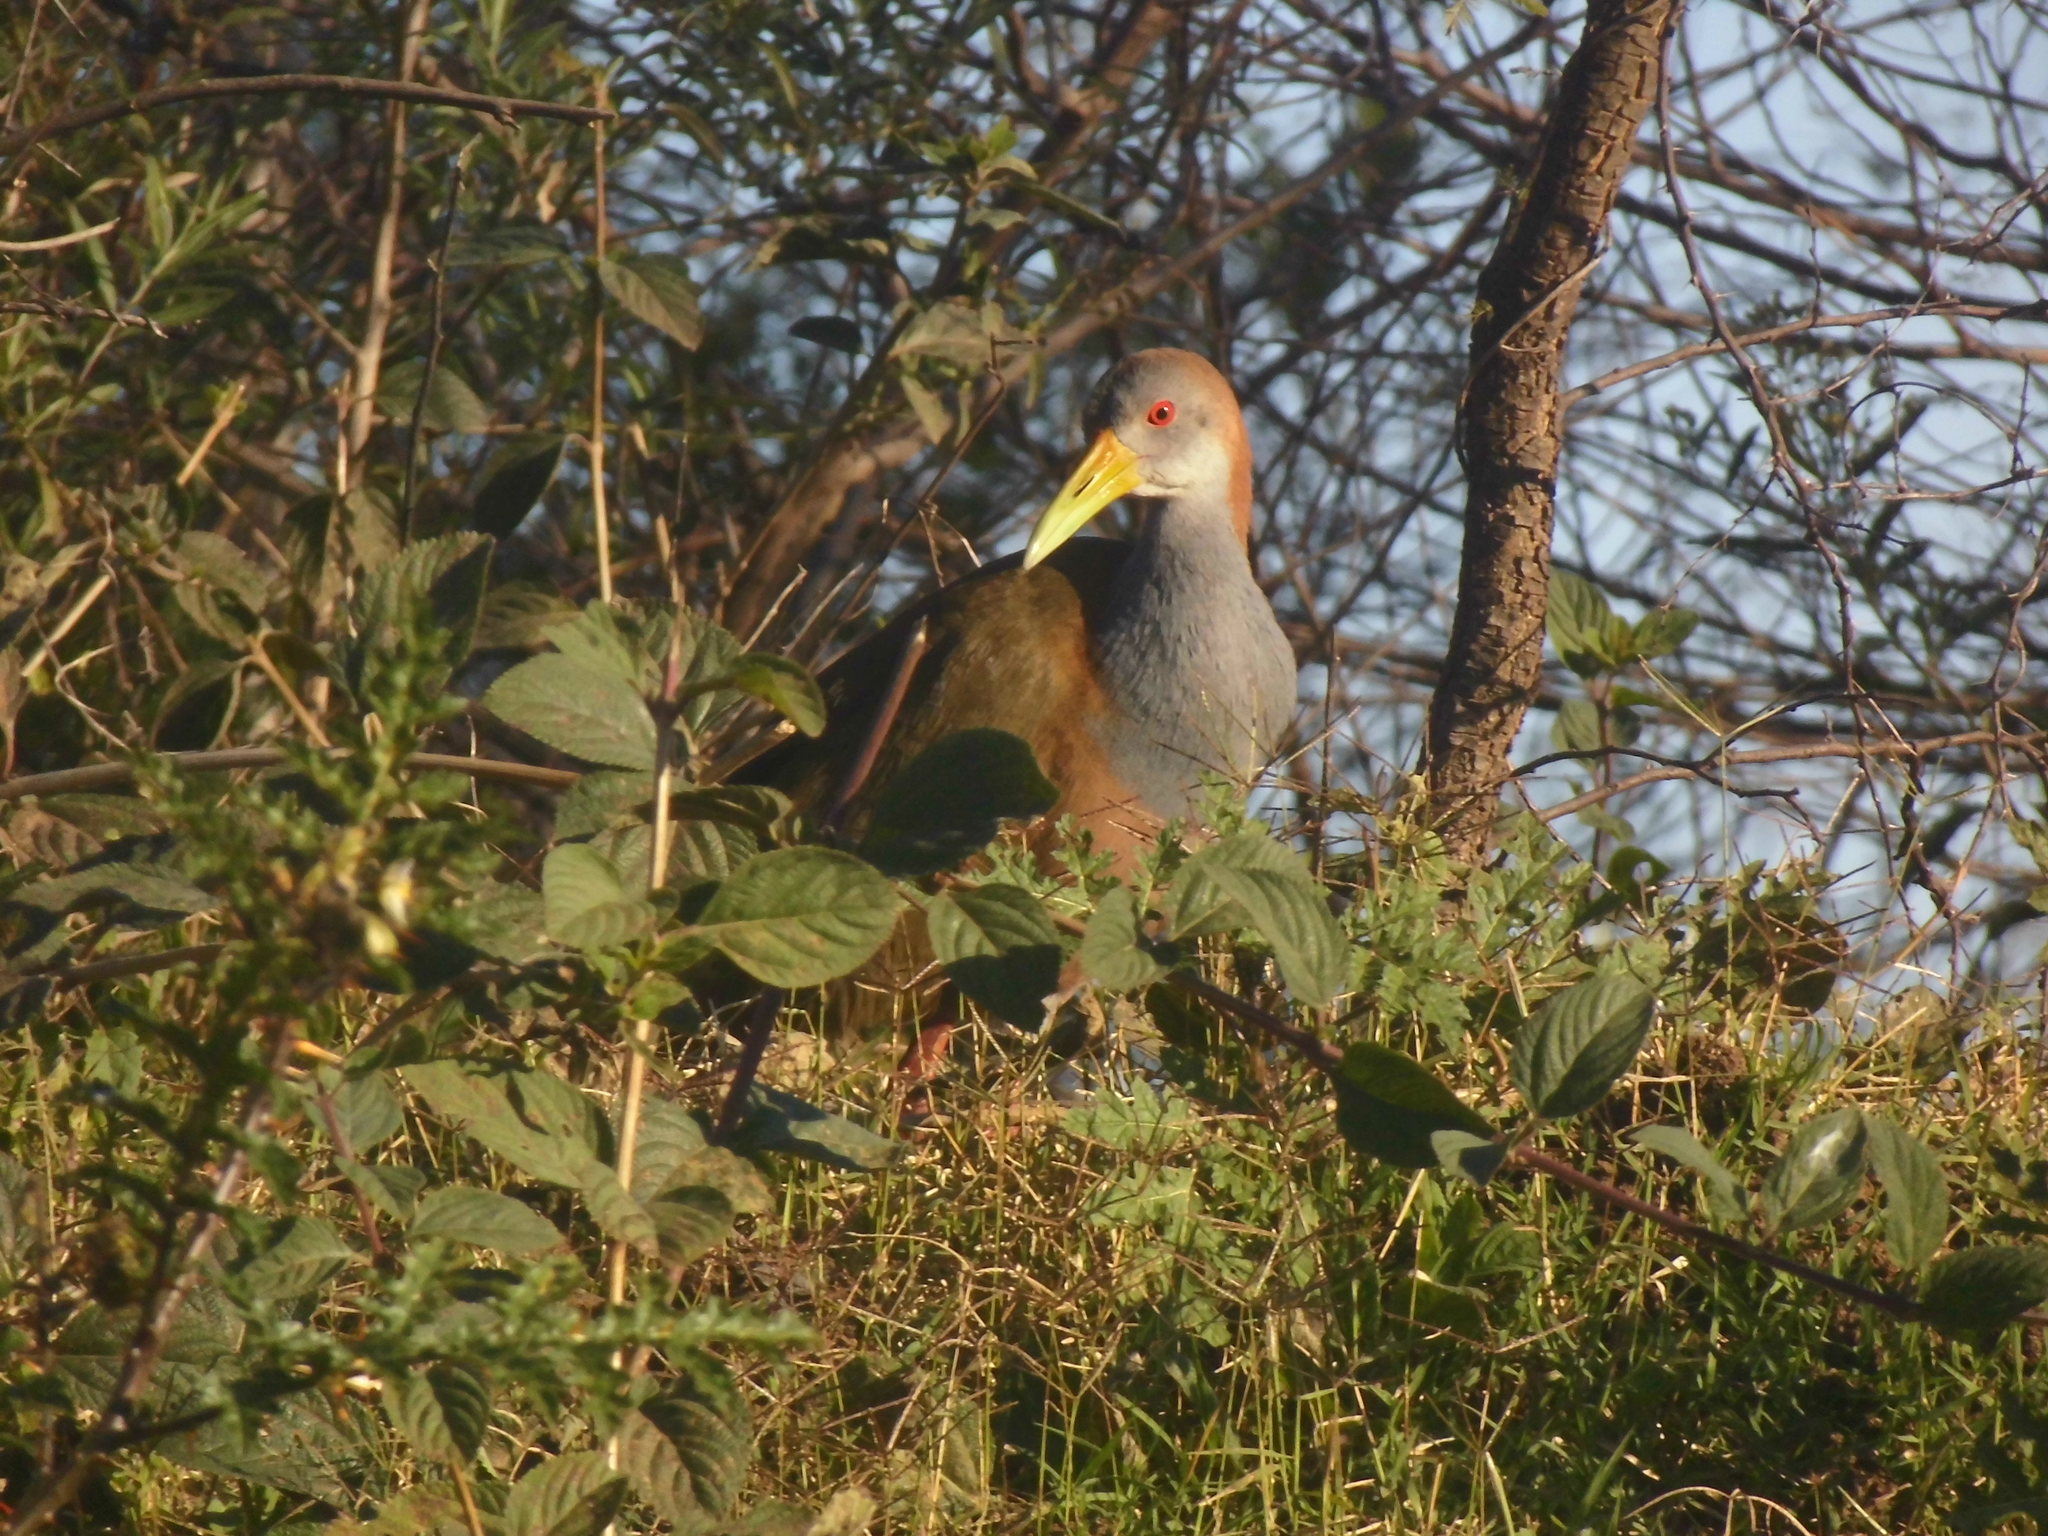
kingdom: Animalia
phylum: Chordata
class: Aves
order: Gruiformes
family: Rallidae
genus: Aramides
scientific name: Aramides ypecaha
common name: Giant wood rail
